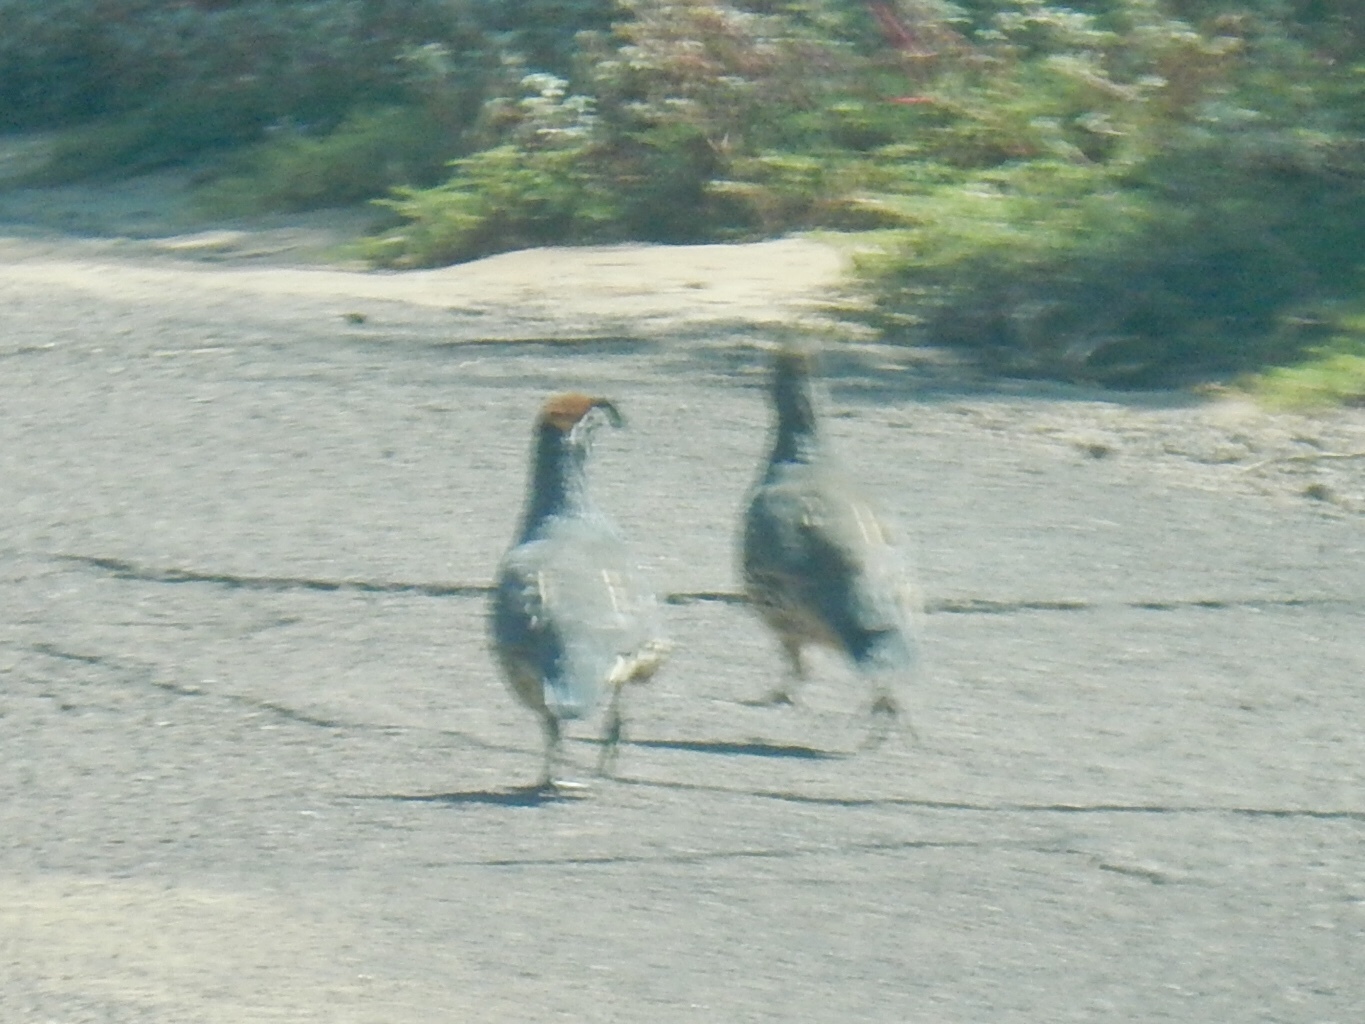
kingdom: Animalia
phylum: Chordata
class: Aves
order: Galliformes
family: Odontophoridae
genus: Callipepla
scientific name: Callipepla gambelii
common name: Gambel's quail
